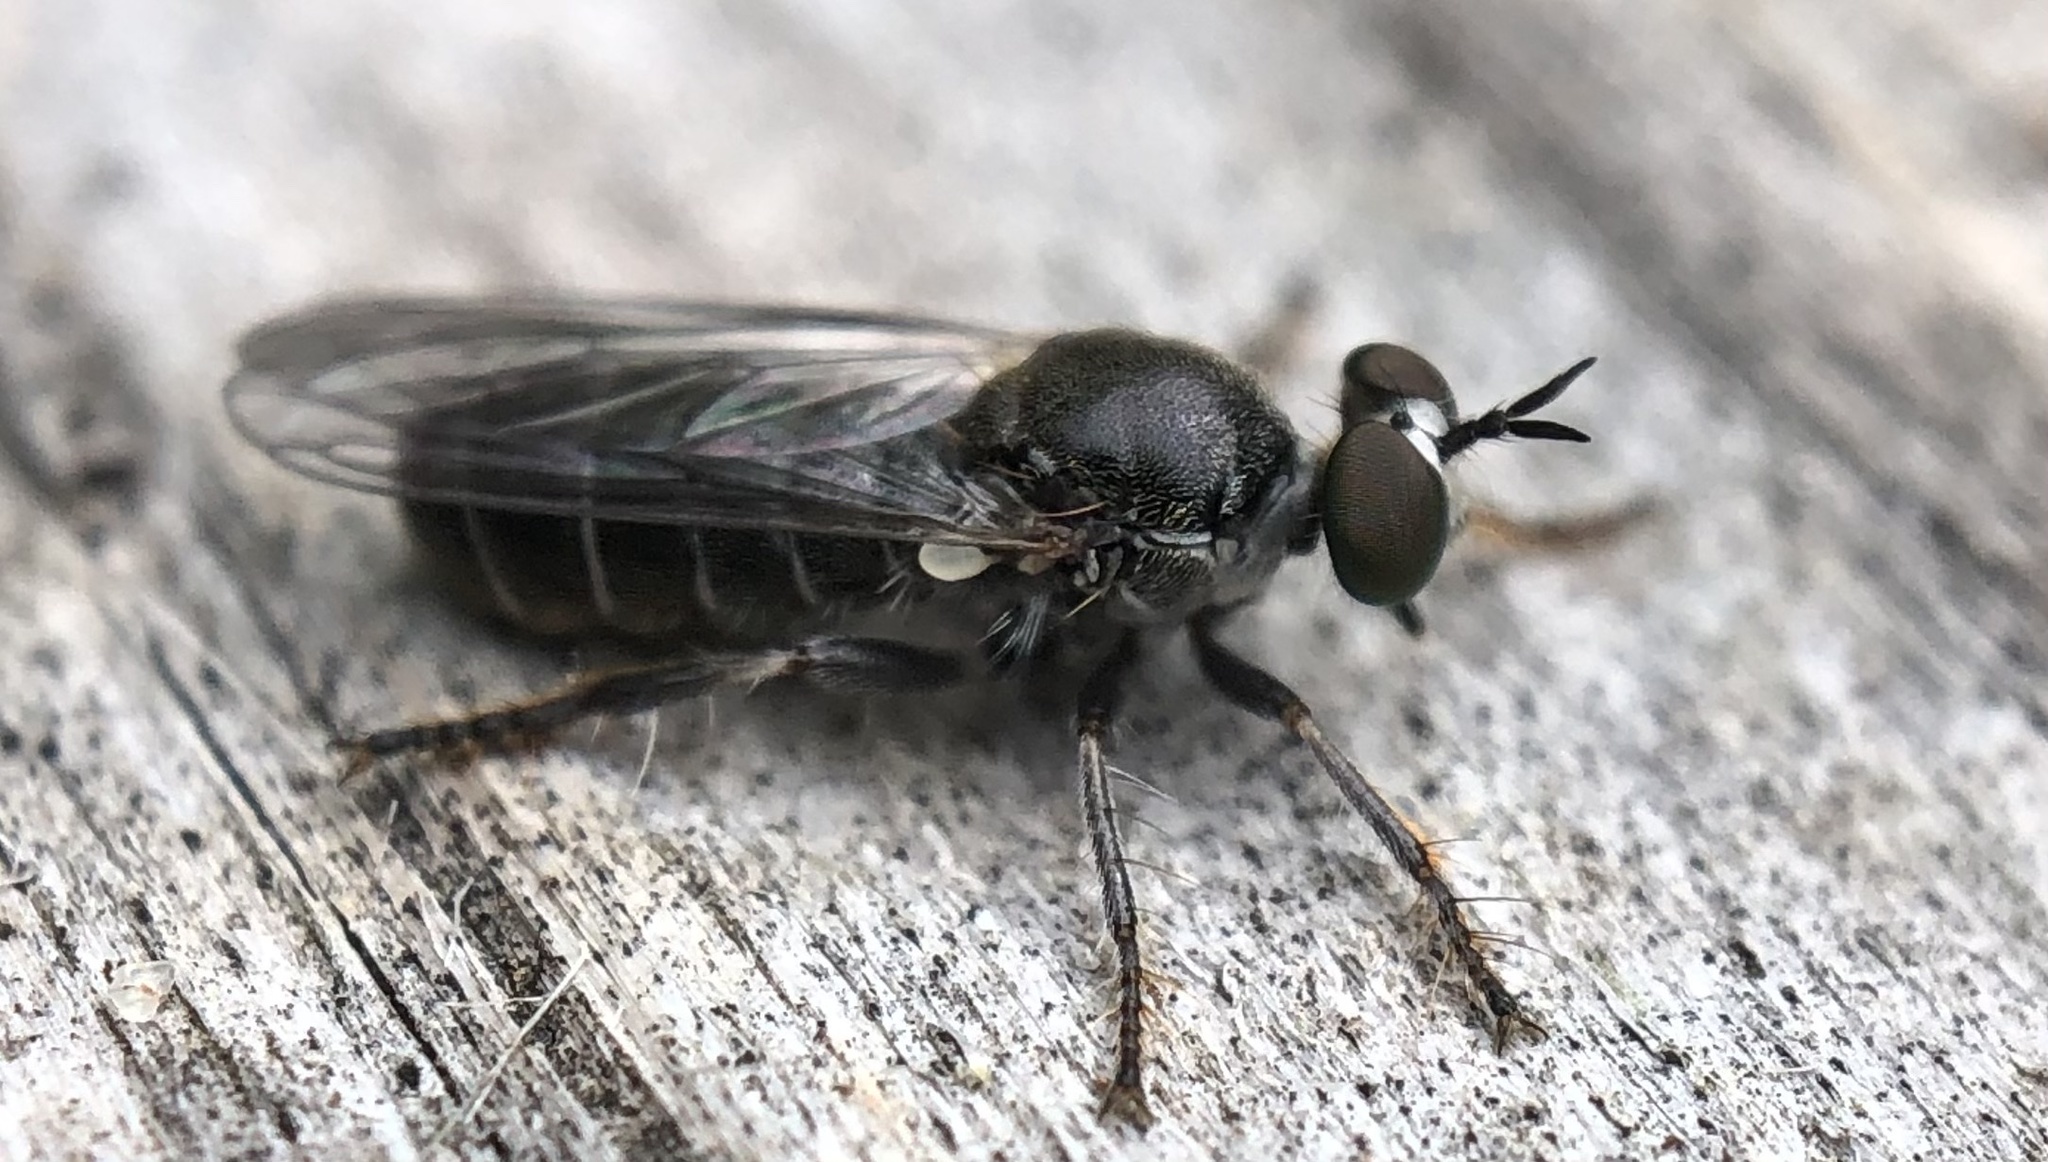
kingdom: Animalia
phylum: Arthropoda
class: Insecta
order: Diptera
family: Asilidae
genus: Atomosia
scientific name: Atomosia puella
